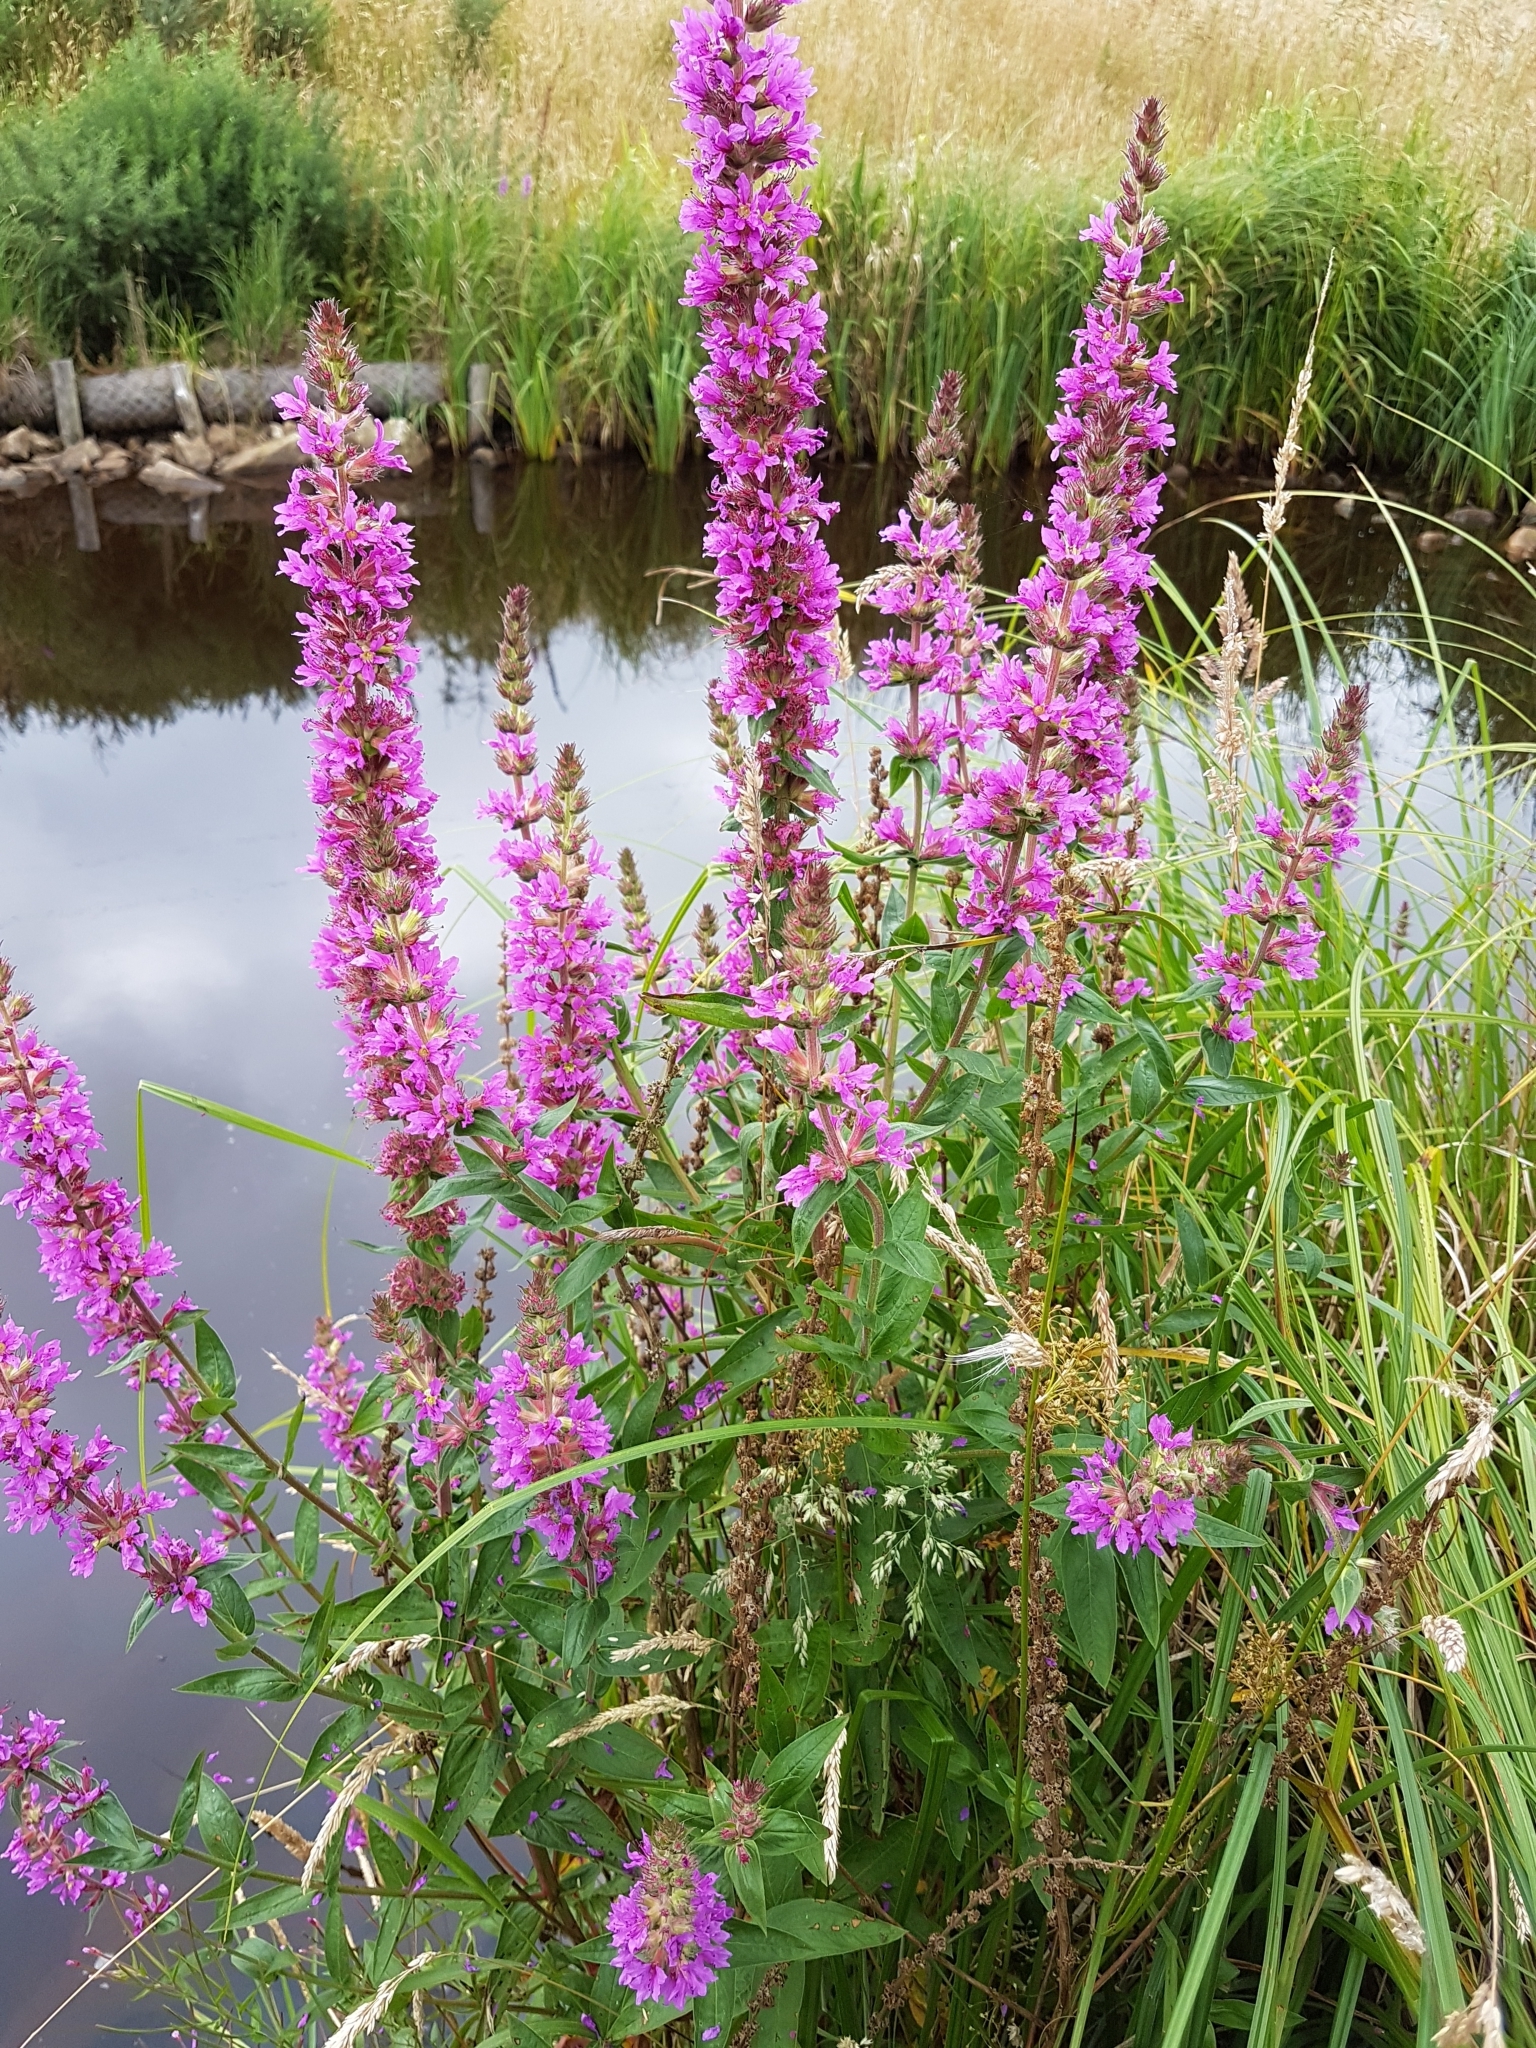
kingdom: Plantae
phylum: Tracheophyta
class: Magnoliopsida
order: Myrtales
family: Lythraceae
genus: Lythrum
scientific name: Lythrum salicaria
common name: Purple loosestrife
